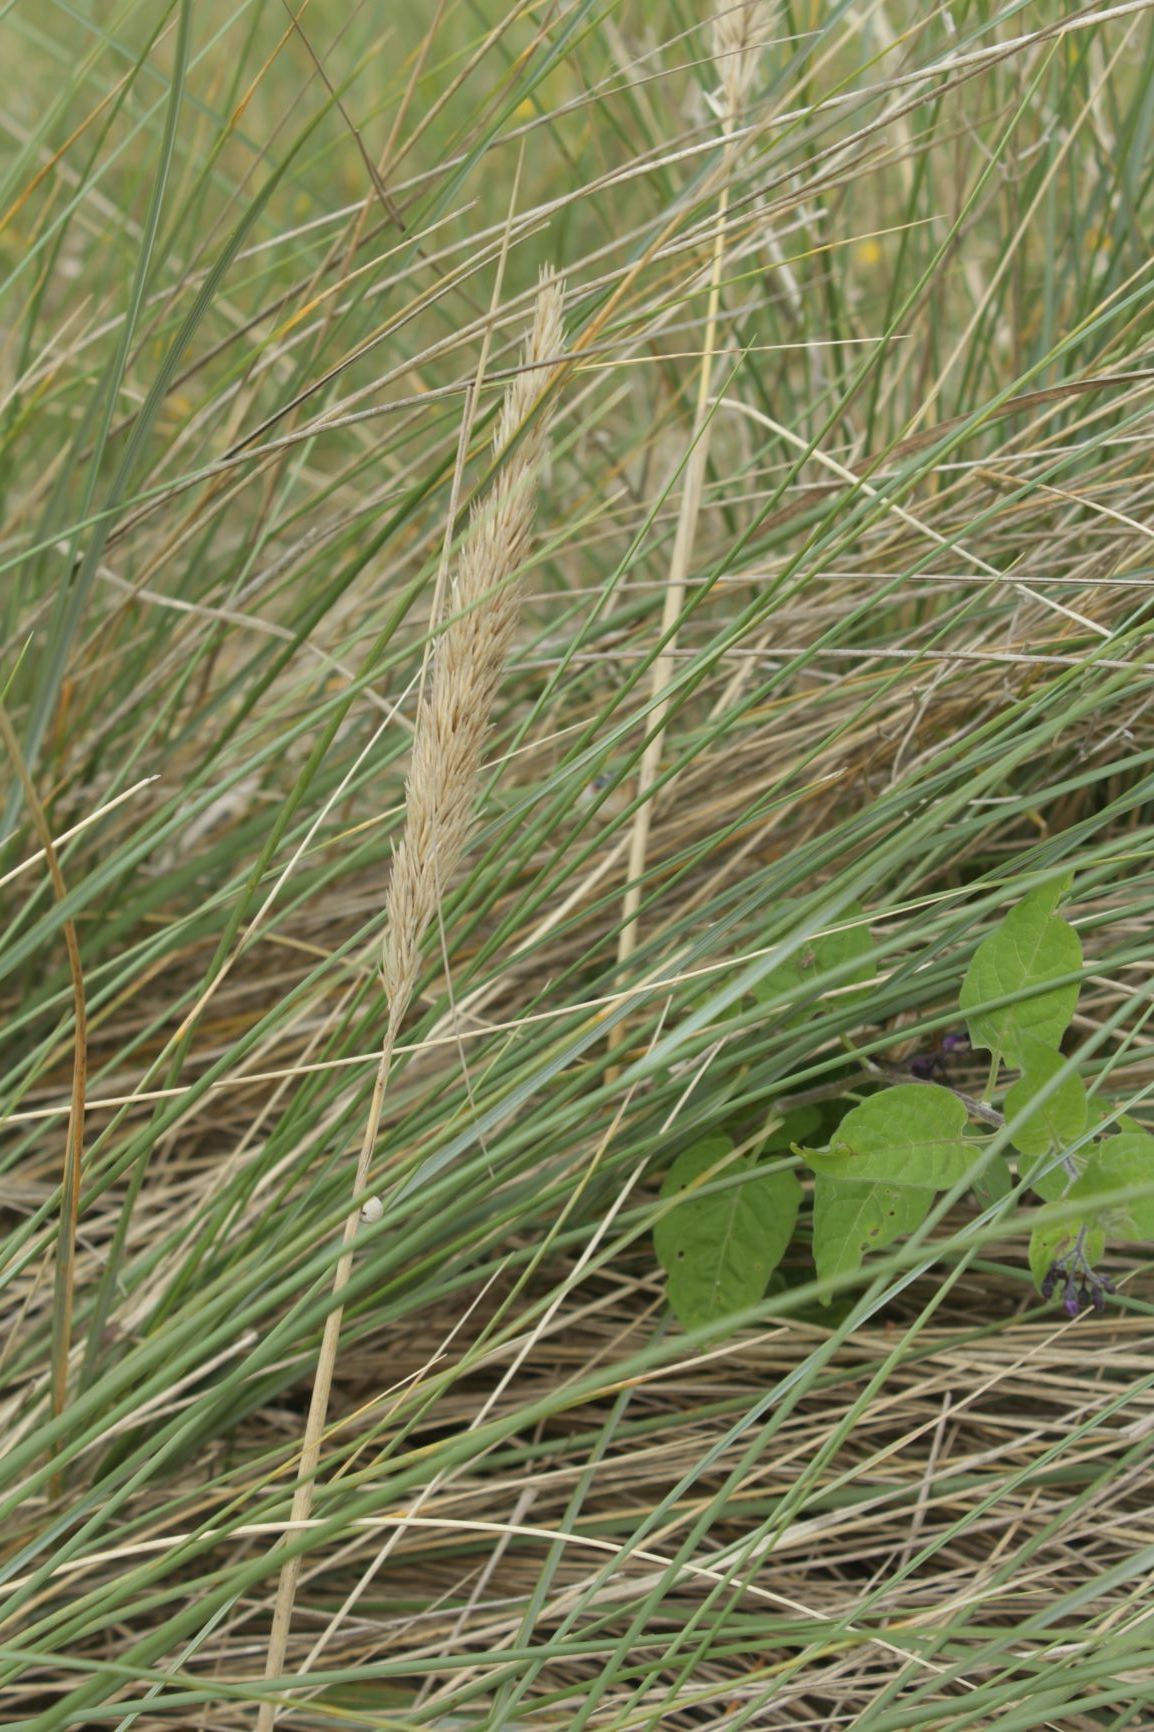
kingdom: Plantae
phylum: Tracheophyta
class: Liliopsida
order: Poales
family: Poaceae
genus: Calamagrostis
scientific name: Calamagrostis arenaria
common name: European beachgrass
